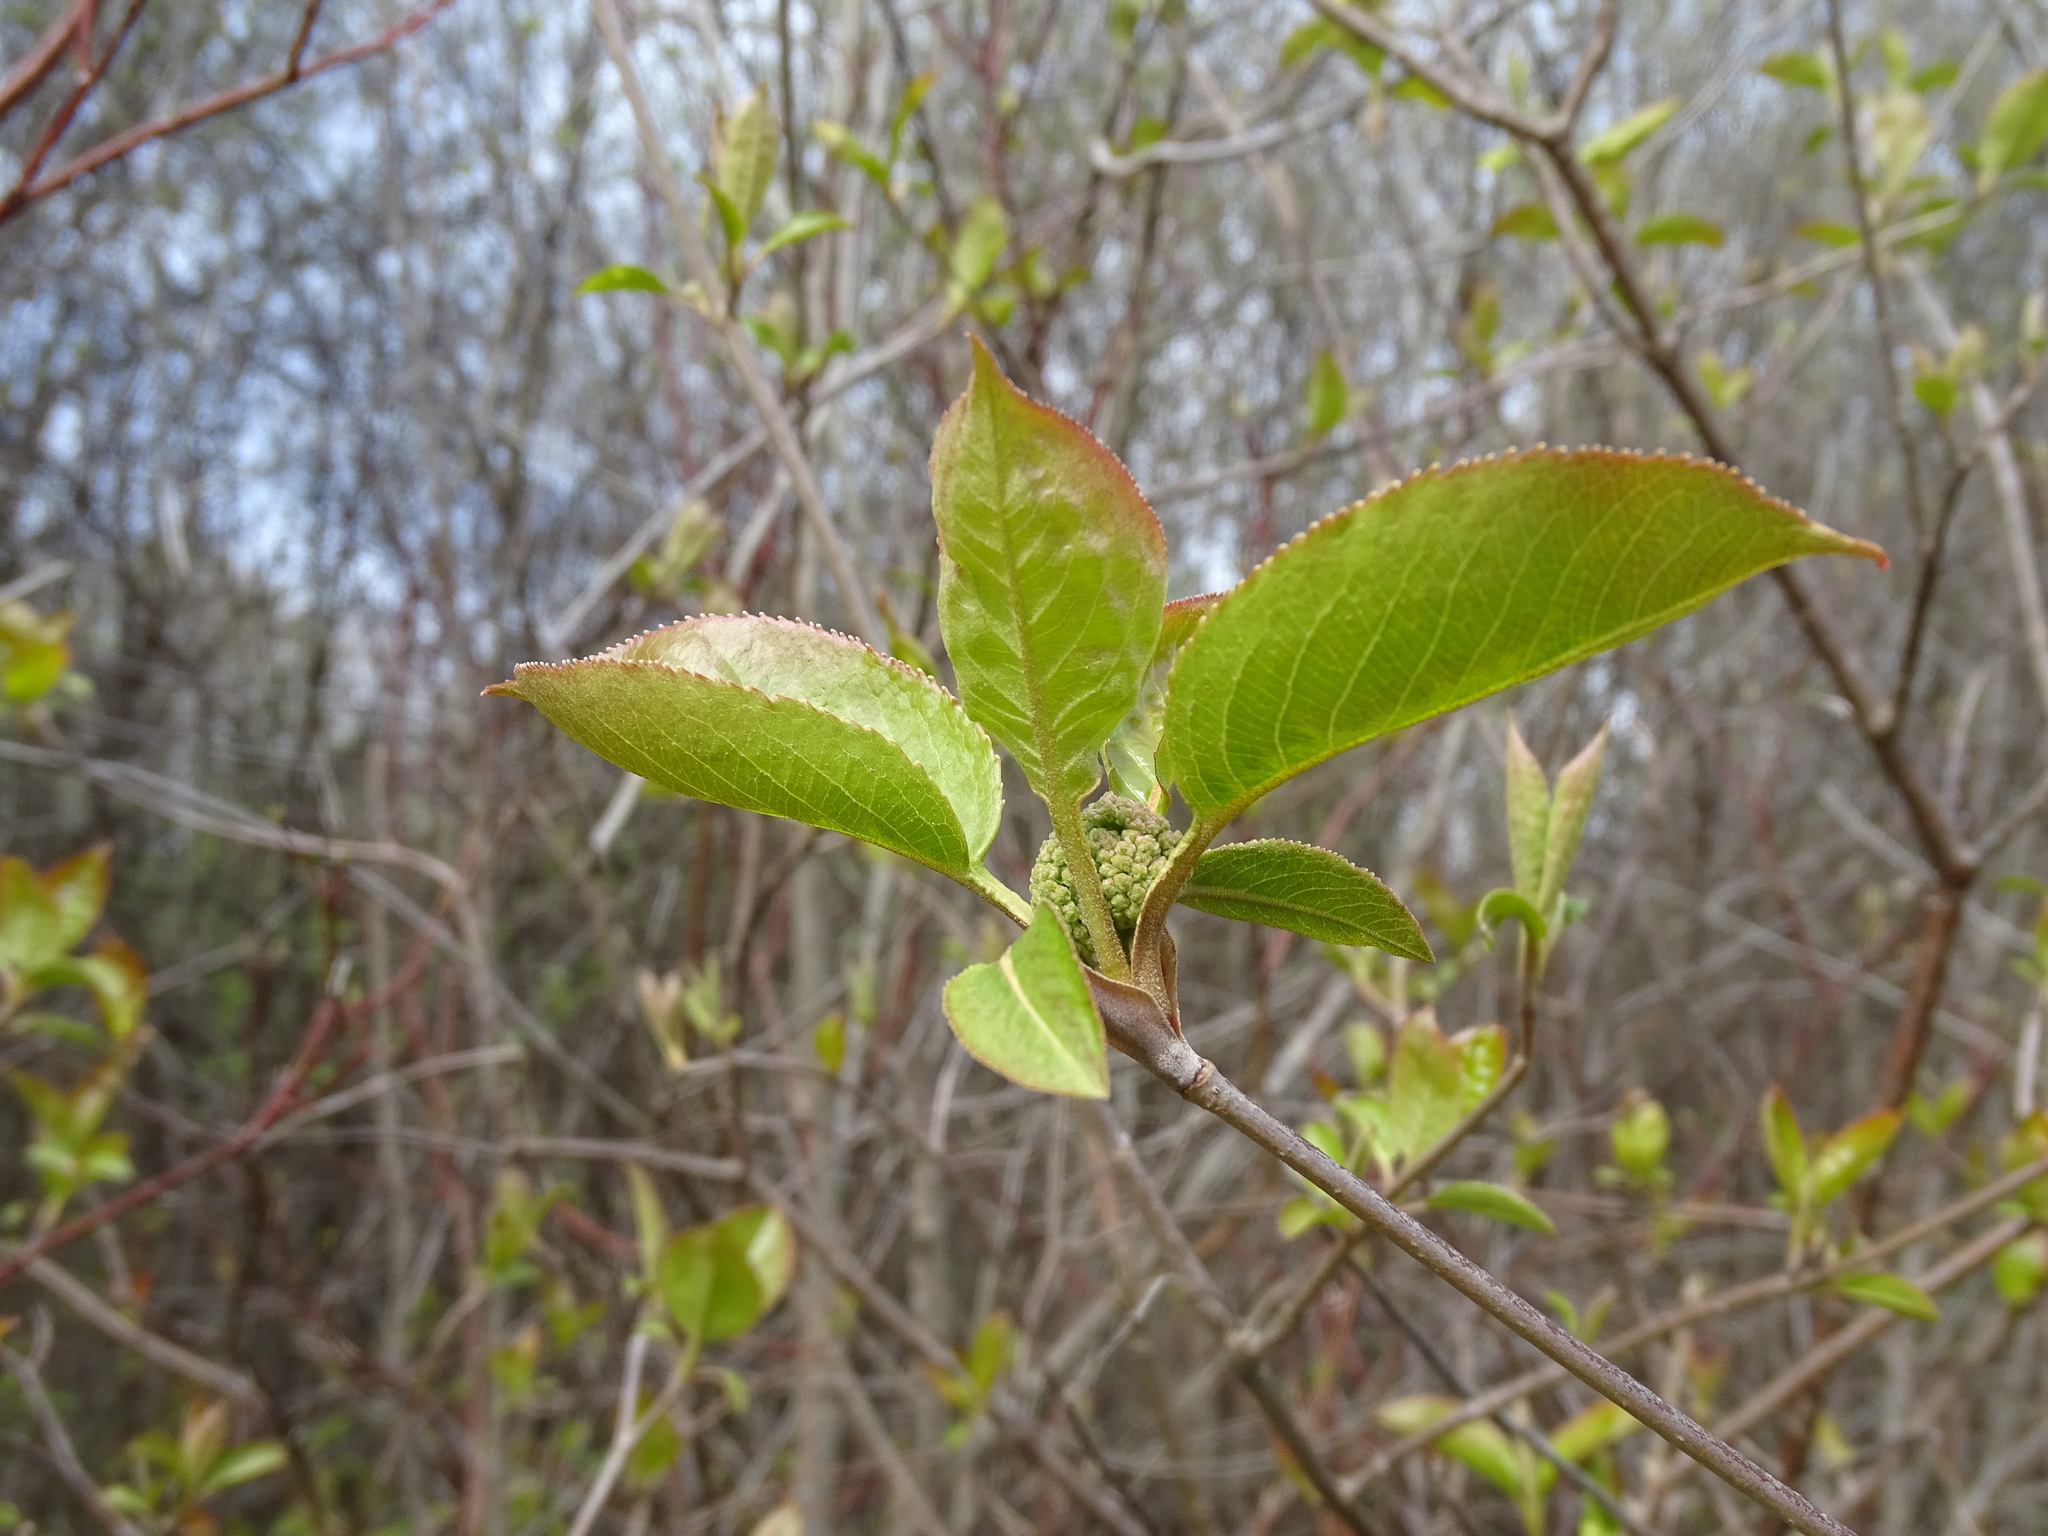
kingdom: Plantae
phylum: Tracheophyta
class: Magnoliopsida
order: Dipsacales
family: Viburnaceae
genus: Viburnum
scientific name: Viburnum lentago
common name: Black haw
